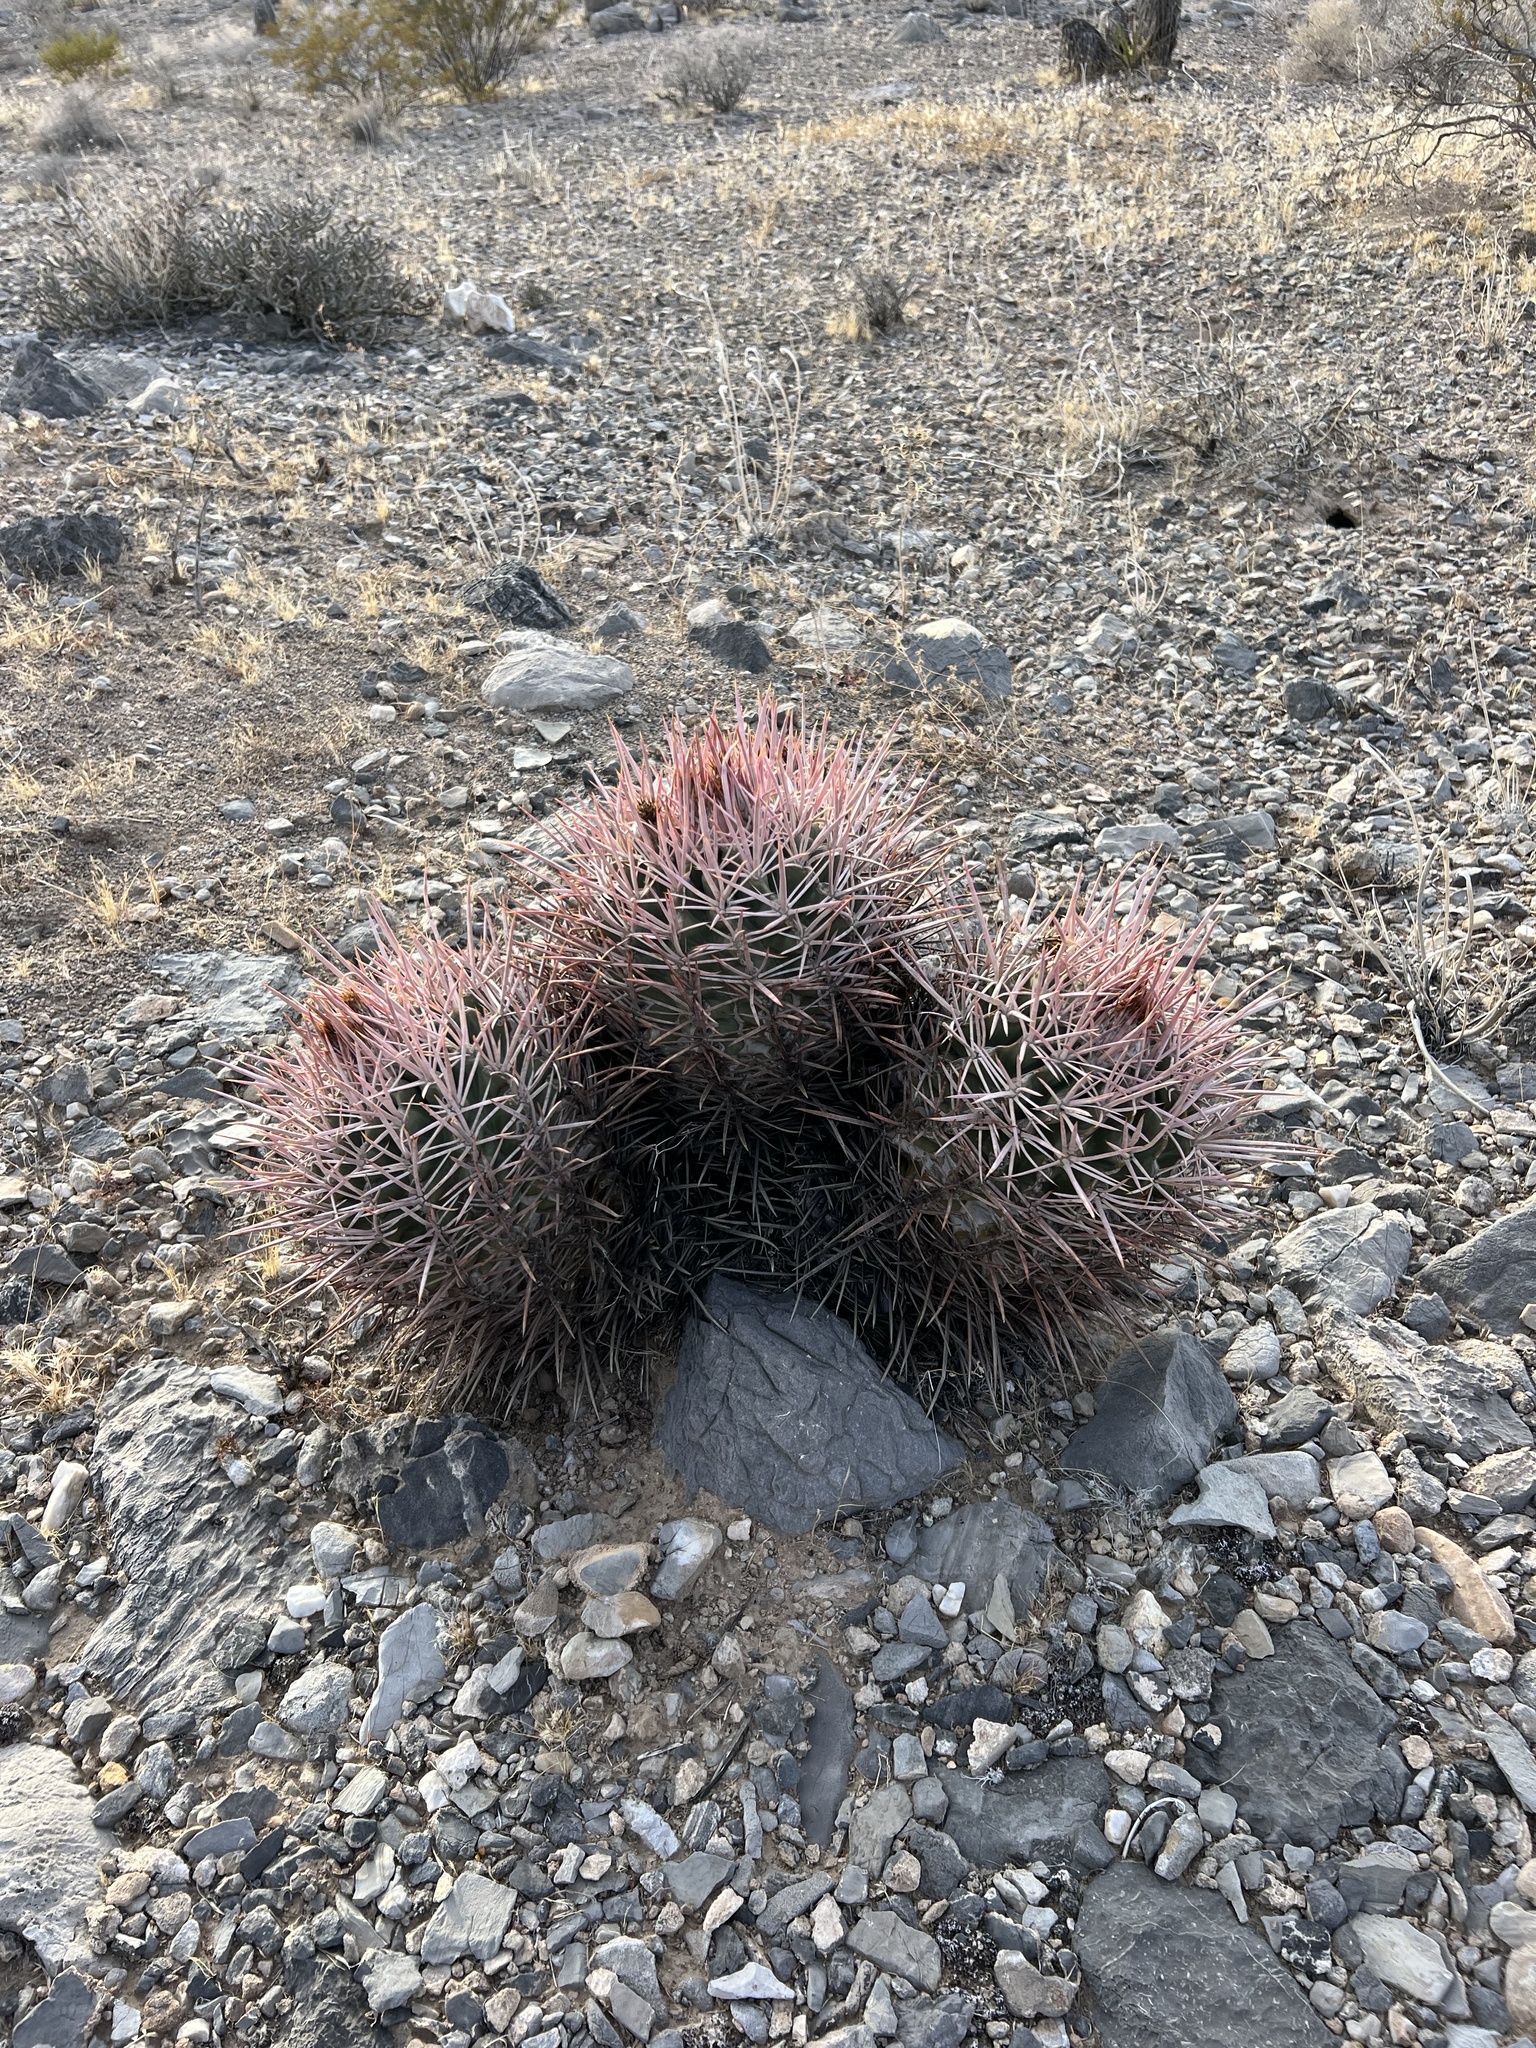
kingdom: Plantae
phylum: Tracheophyta
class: Magnoliopsida
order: Caryophyllales
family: Cactaceae
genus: Echinocactus
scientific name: Echinocactus polycephalus
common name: Cottontop cactus
